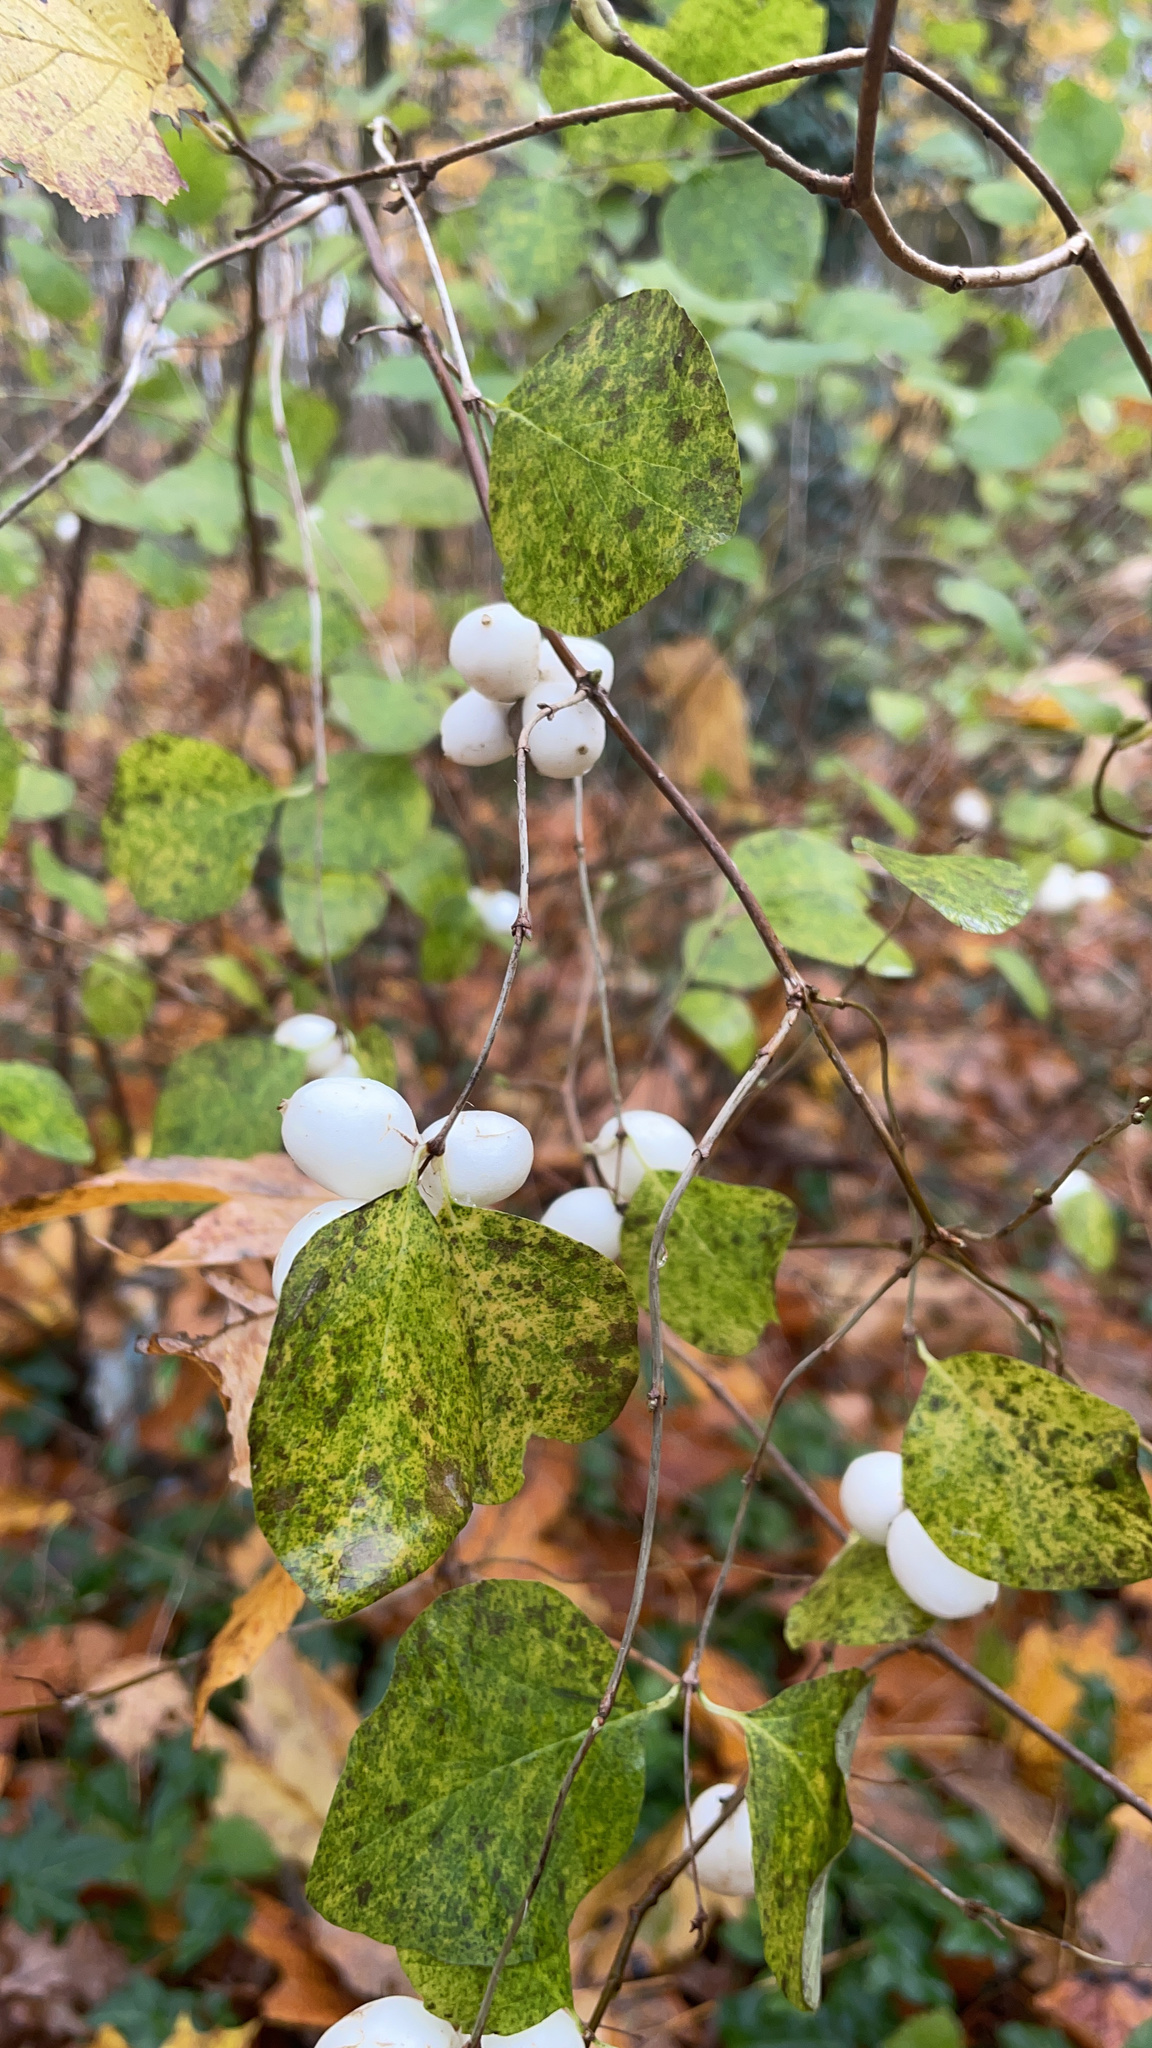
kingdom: Plantae
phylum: Tracheophyta
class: Magnoliopsida
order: Dipsacales
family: Caprifoliaceae
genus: Symphoricarpos
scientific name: Symphoricarpos albus
